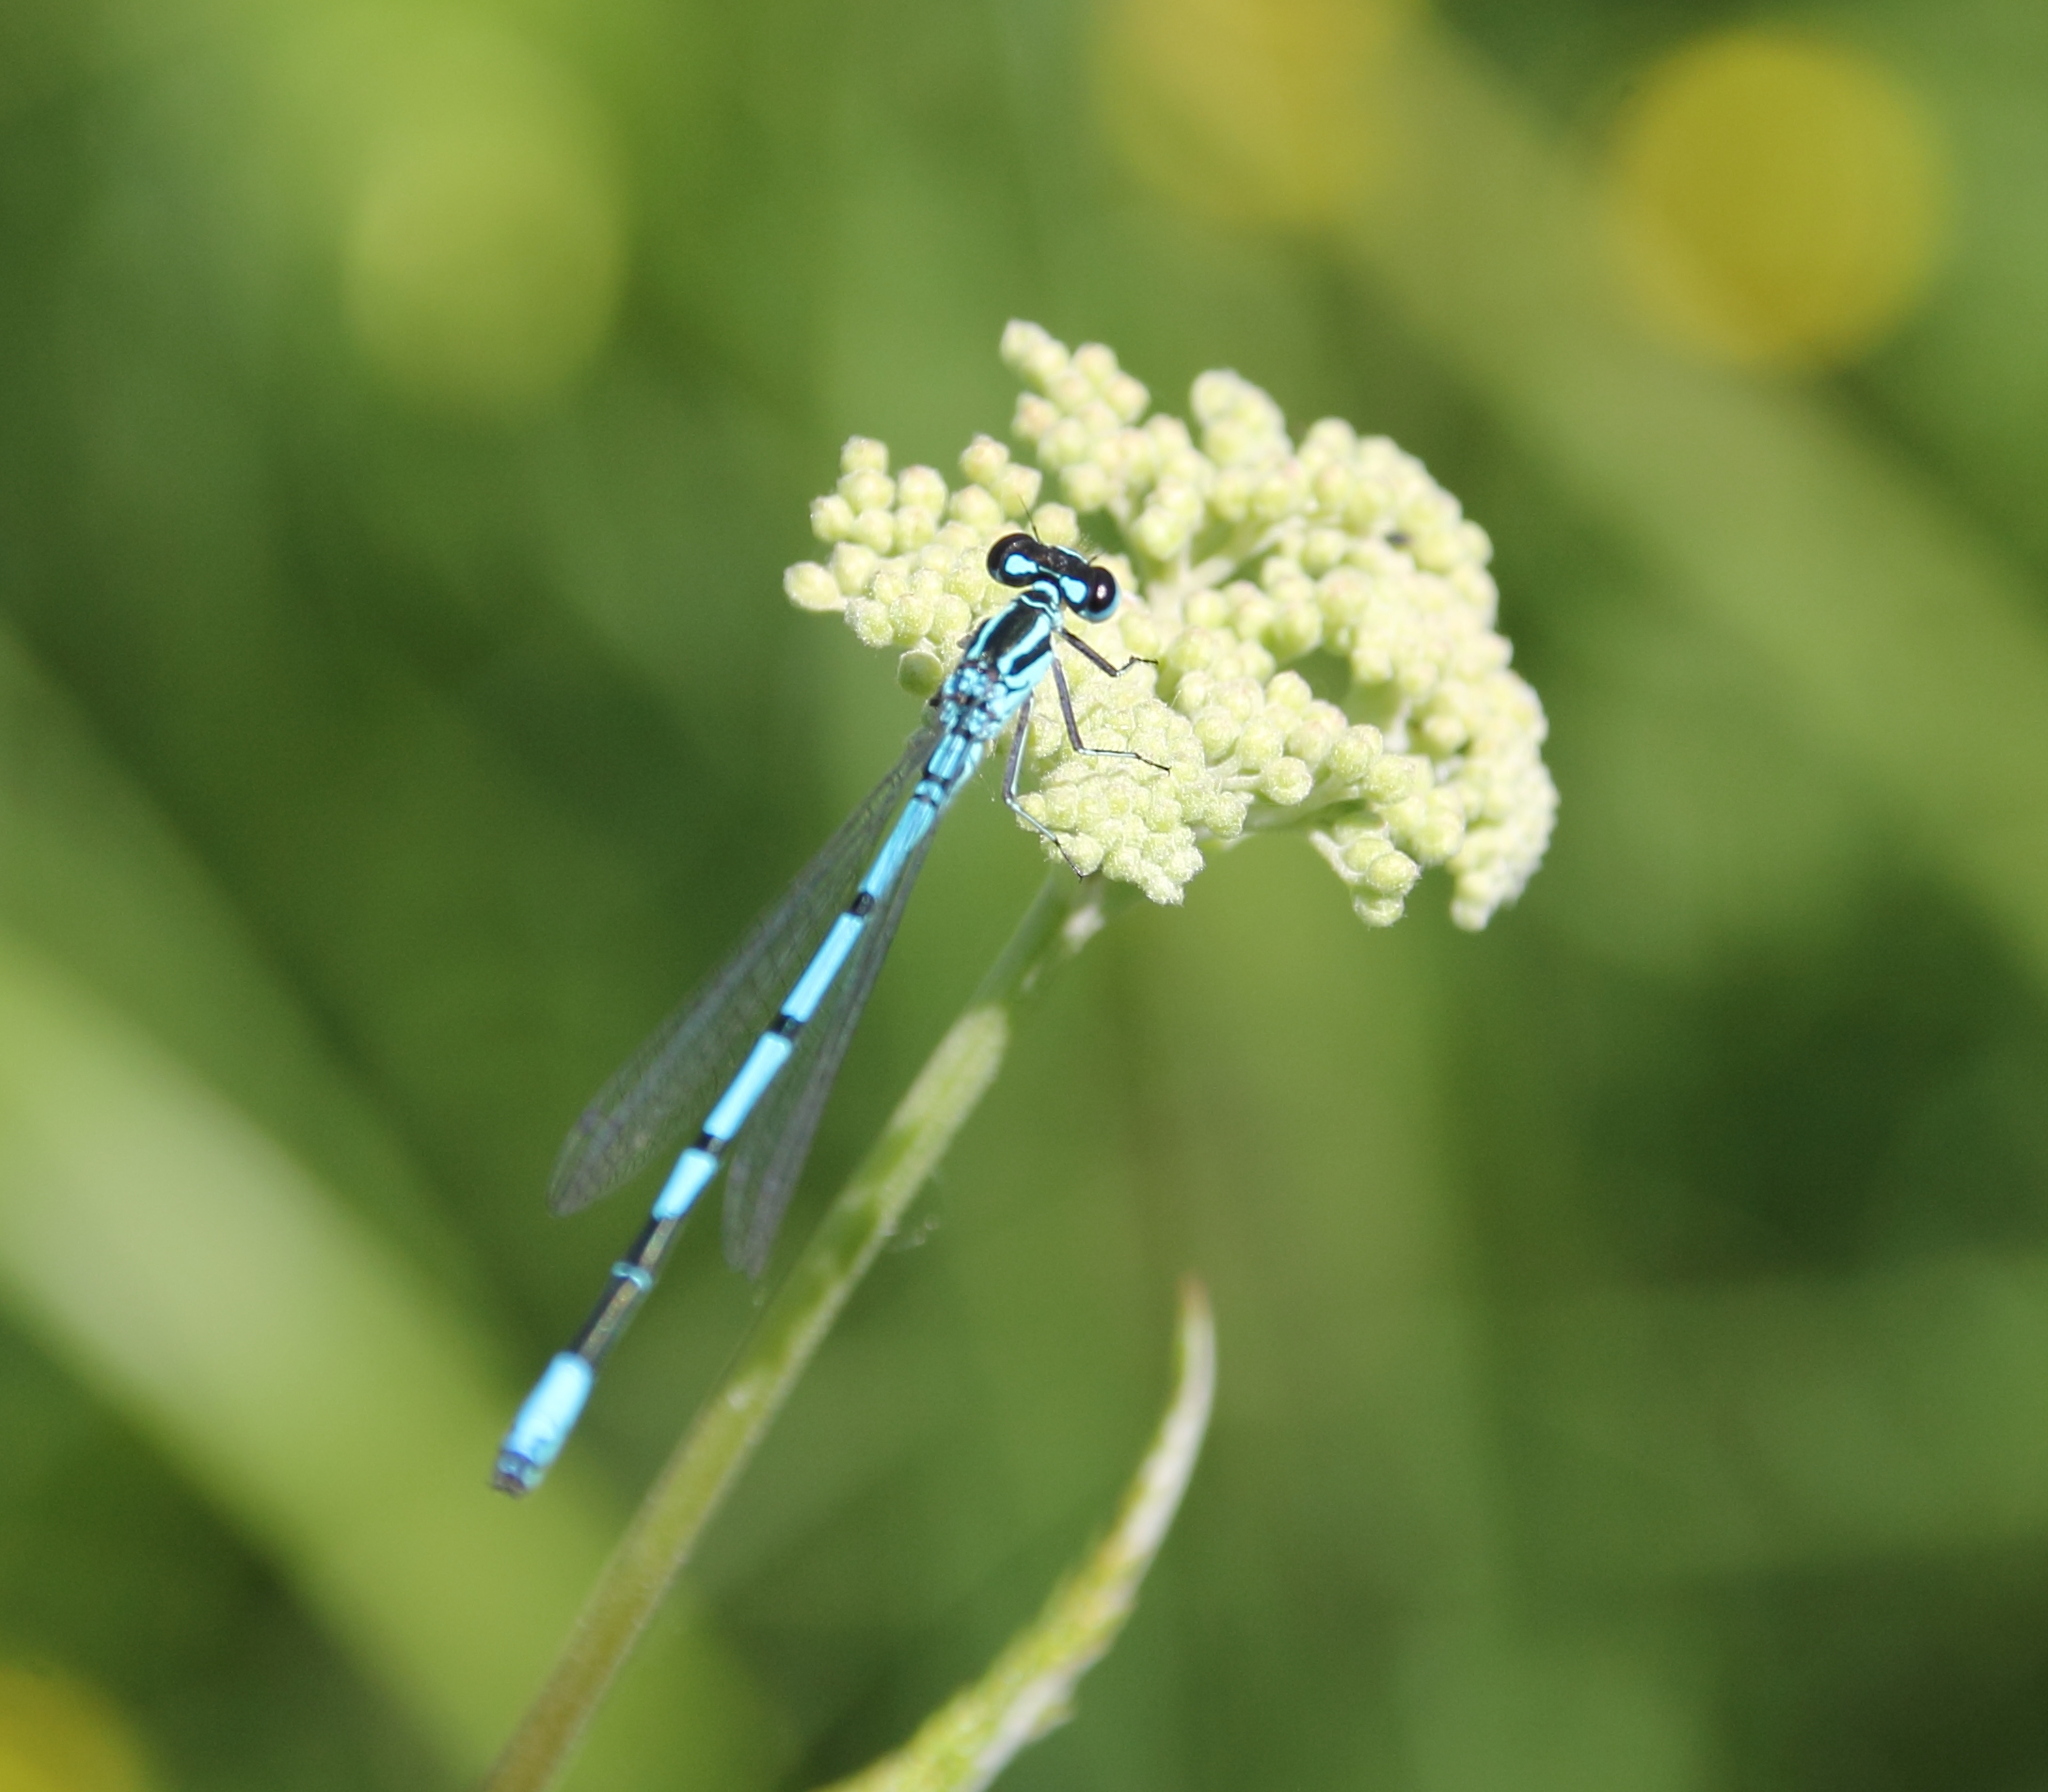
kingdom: Animalia
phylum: Arthropoda
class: Insecta
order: Odonata
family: Coenagrionidae
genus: Coenagrion
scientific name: Coenagrion puella
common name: Azure damselfly
